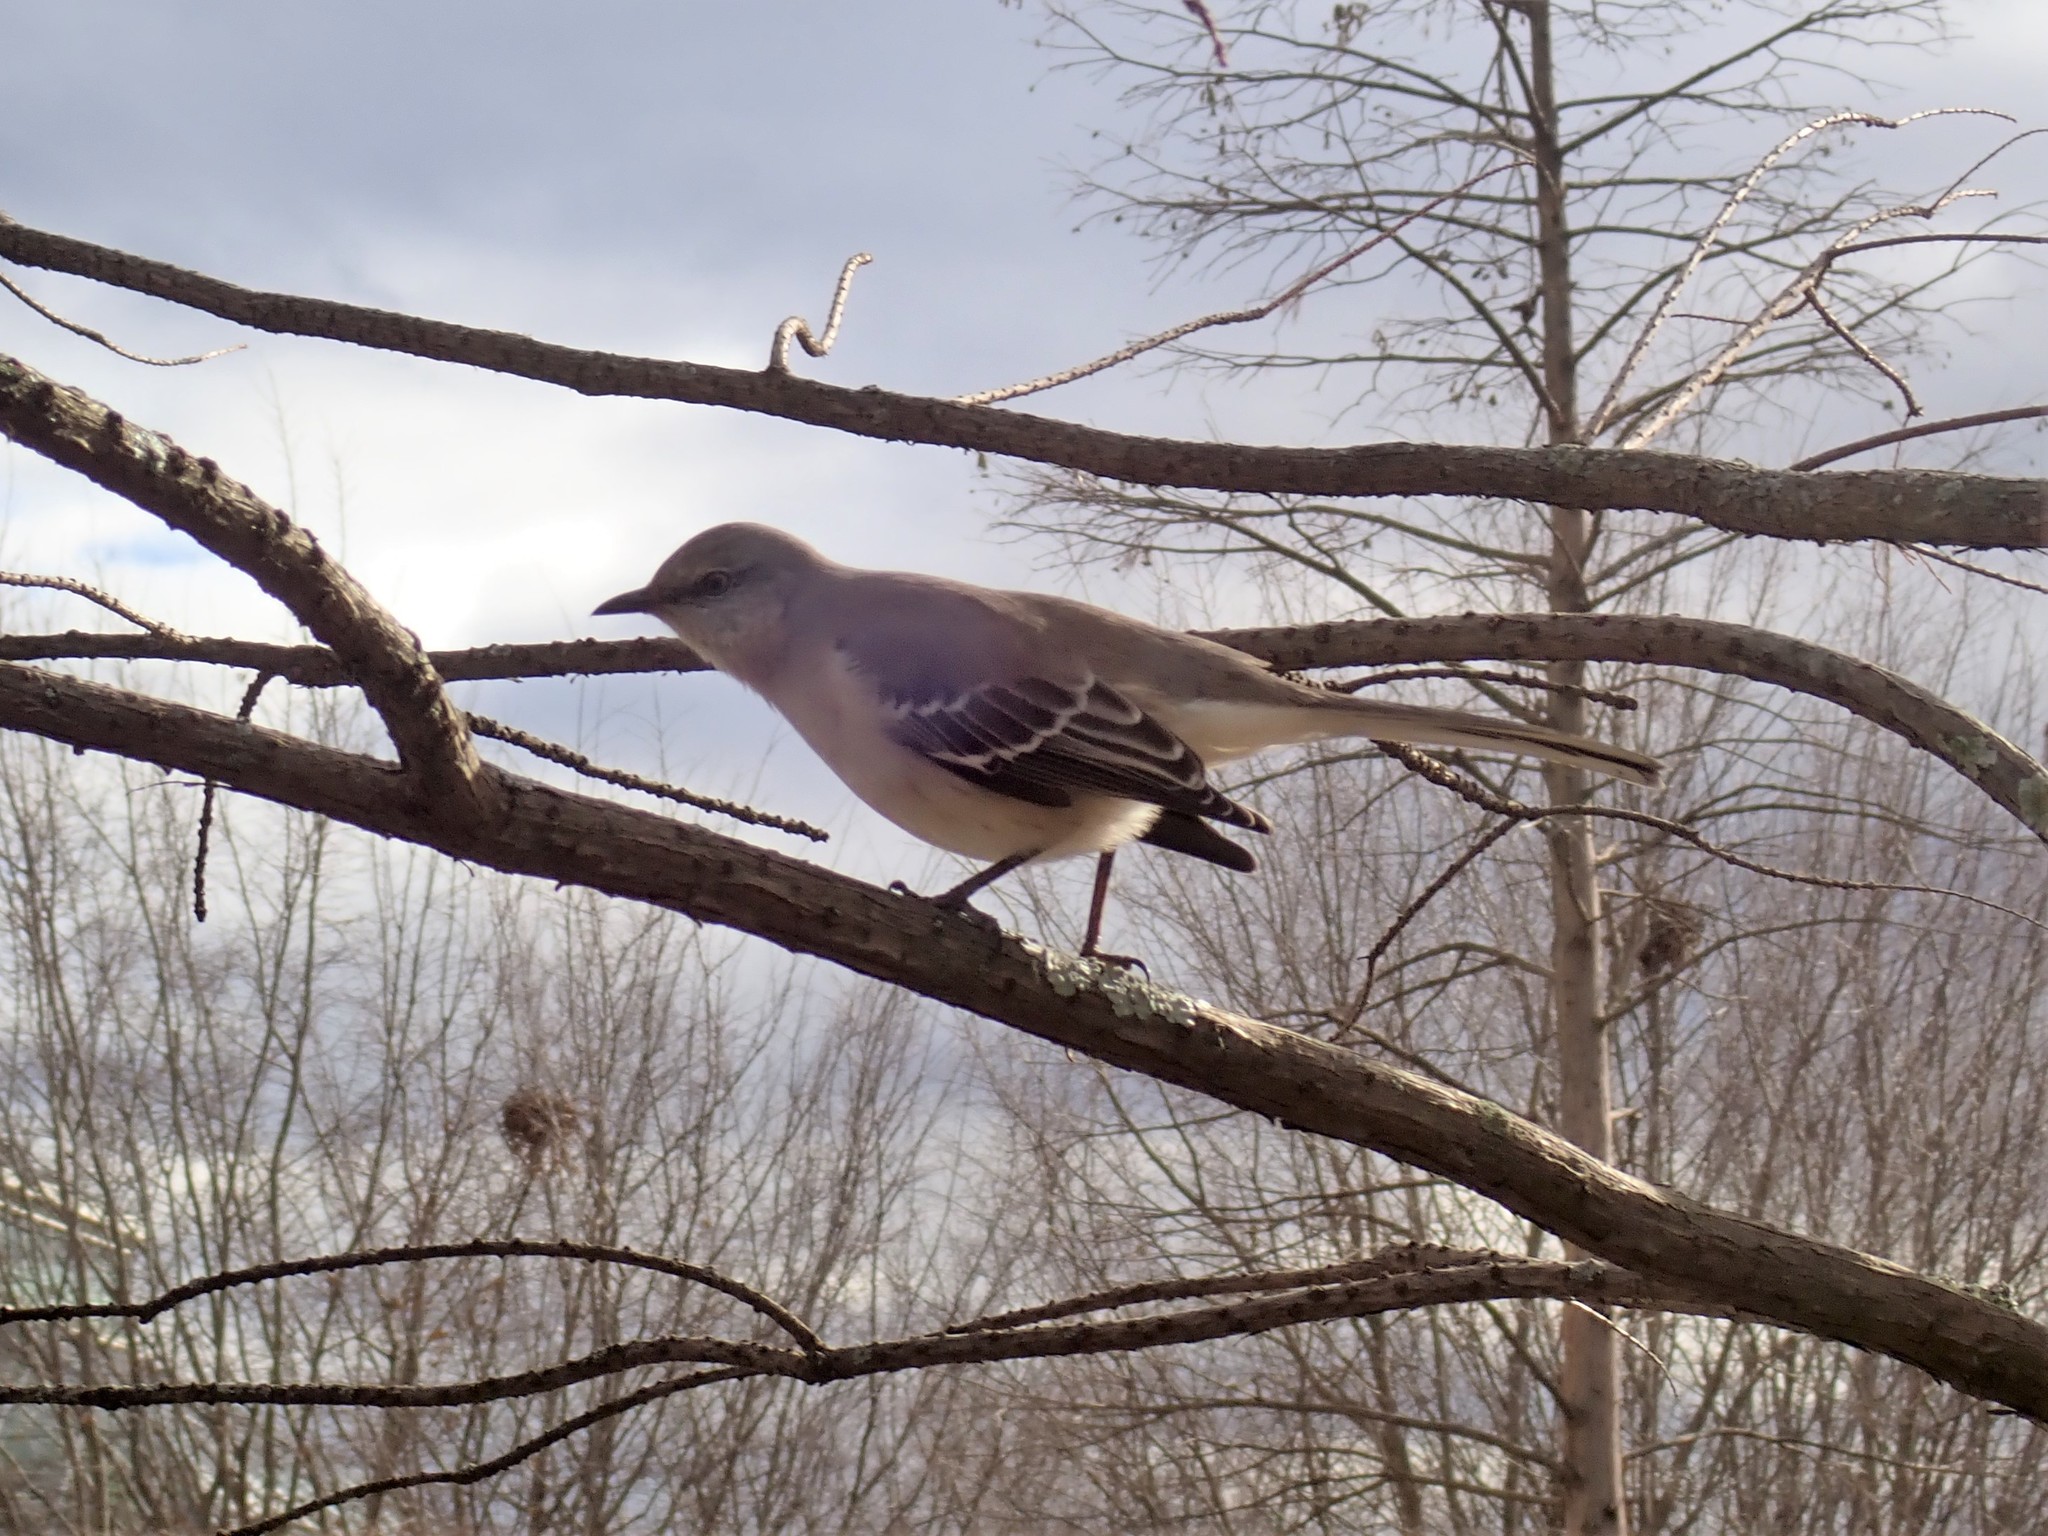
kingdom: Animalia
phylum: Chordata
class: Aves
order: Passeriformes
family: Mimidae
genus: Mimus
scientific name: Mimus polyglottos
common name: Northern mockingbird
